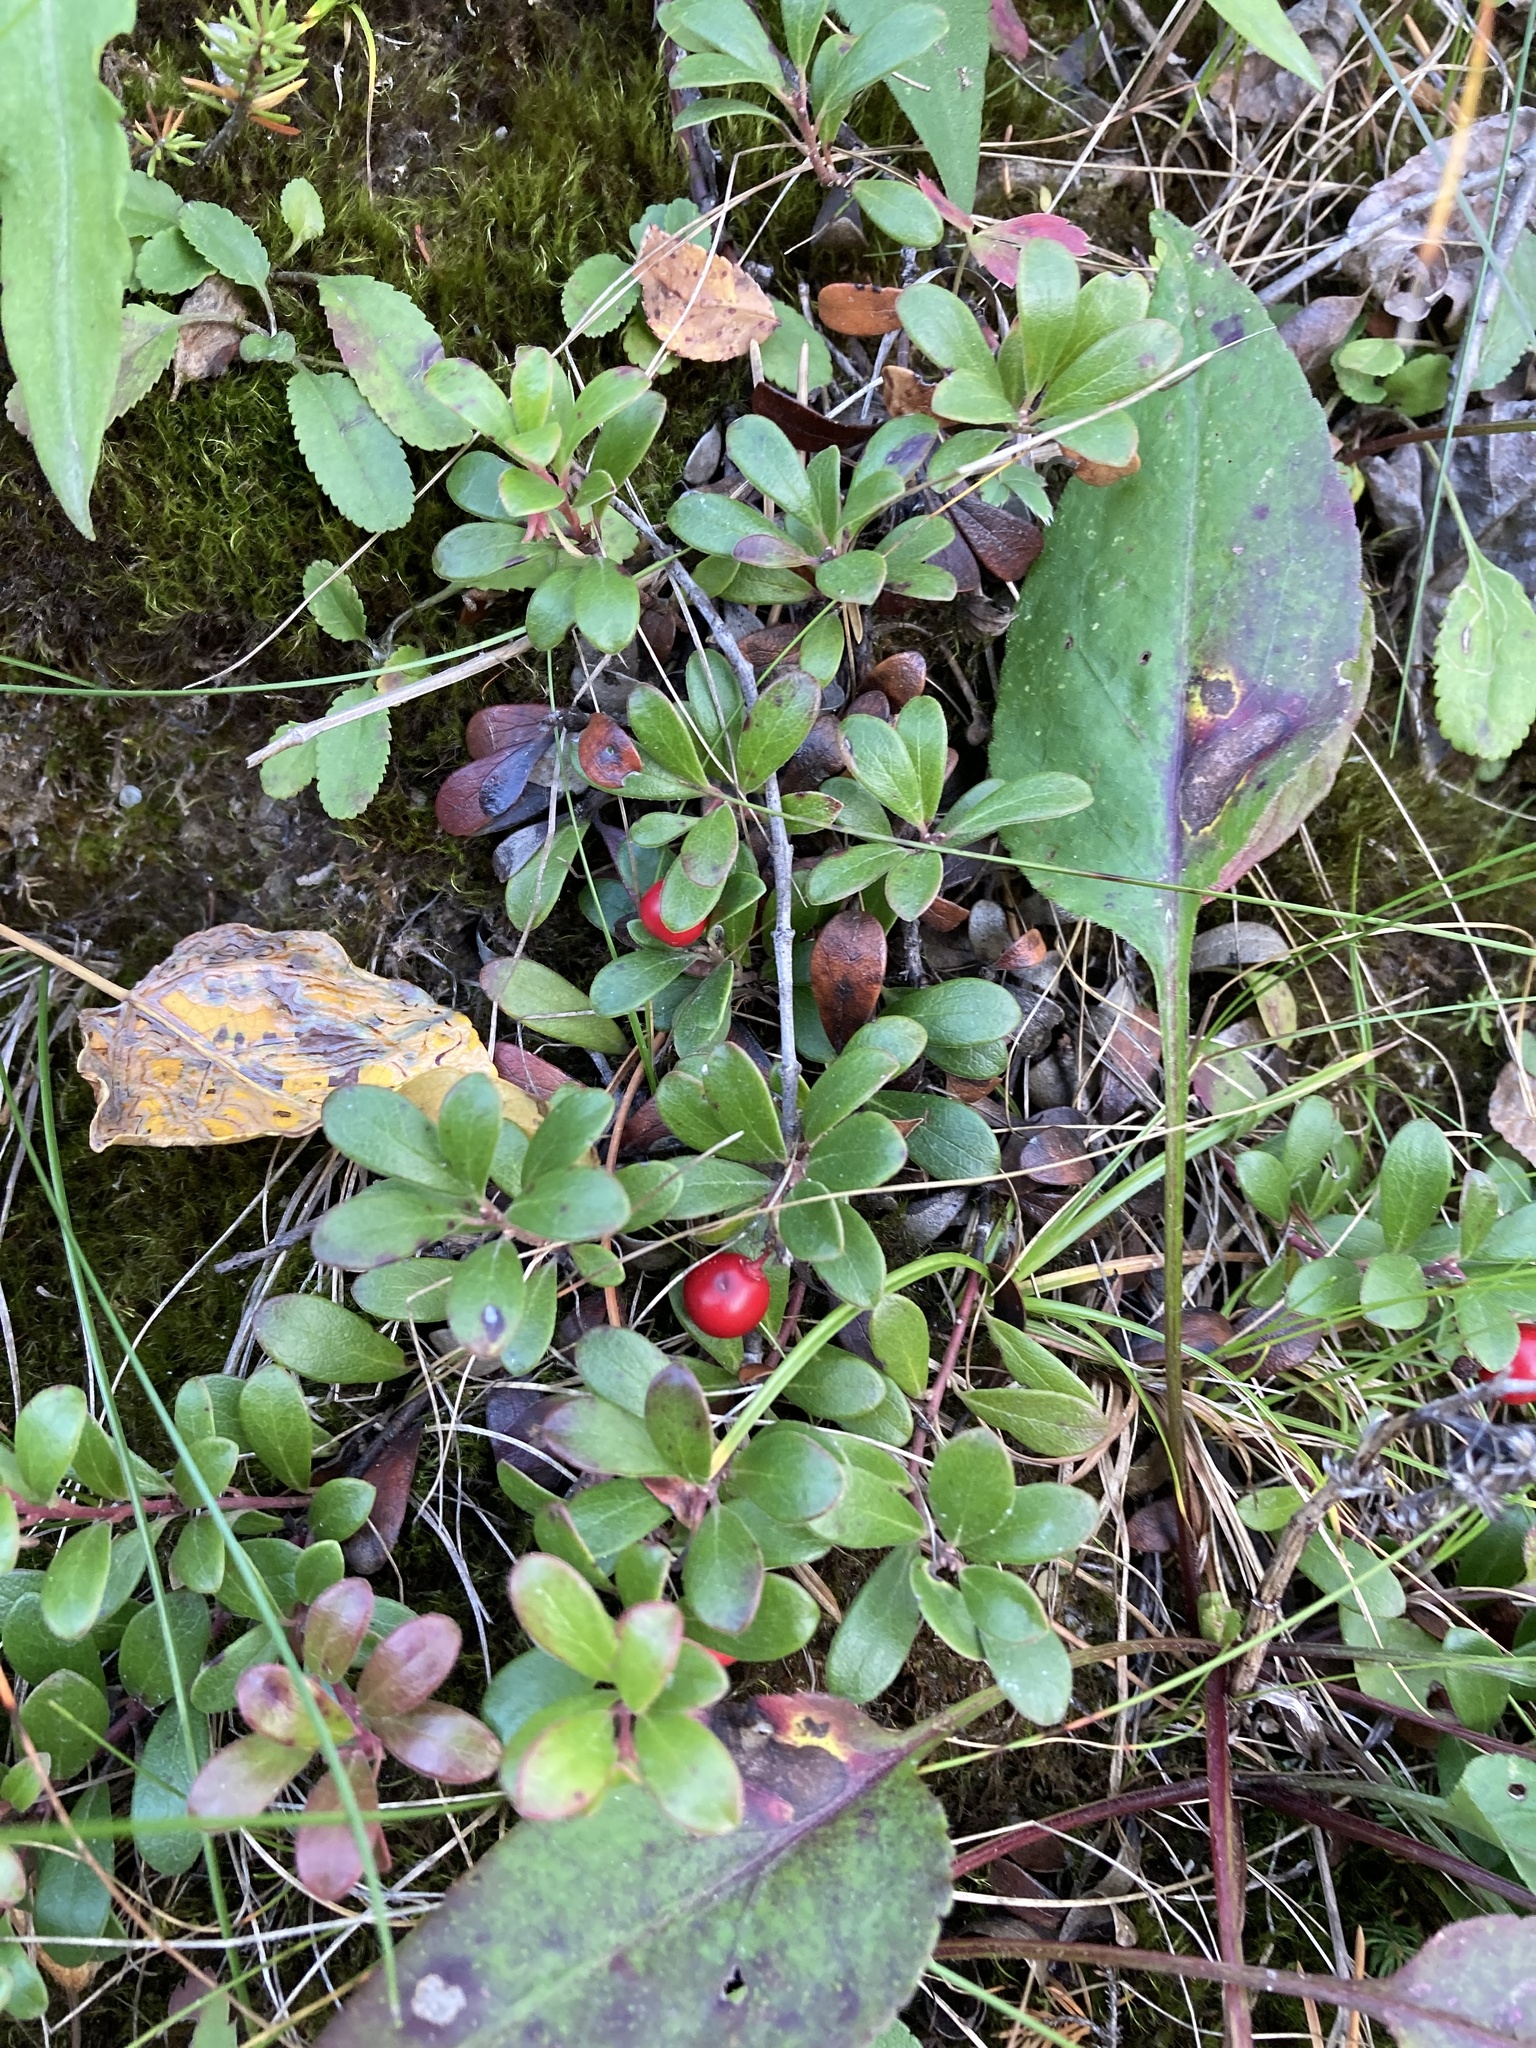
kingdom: Plantae
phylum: Tracheophyta
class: Magnoliopsida
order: Ericales
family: Ericaceae
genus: Arctostaphylos
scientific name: Arctostaphylos uva-ursi
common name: Bearberry
